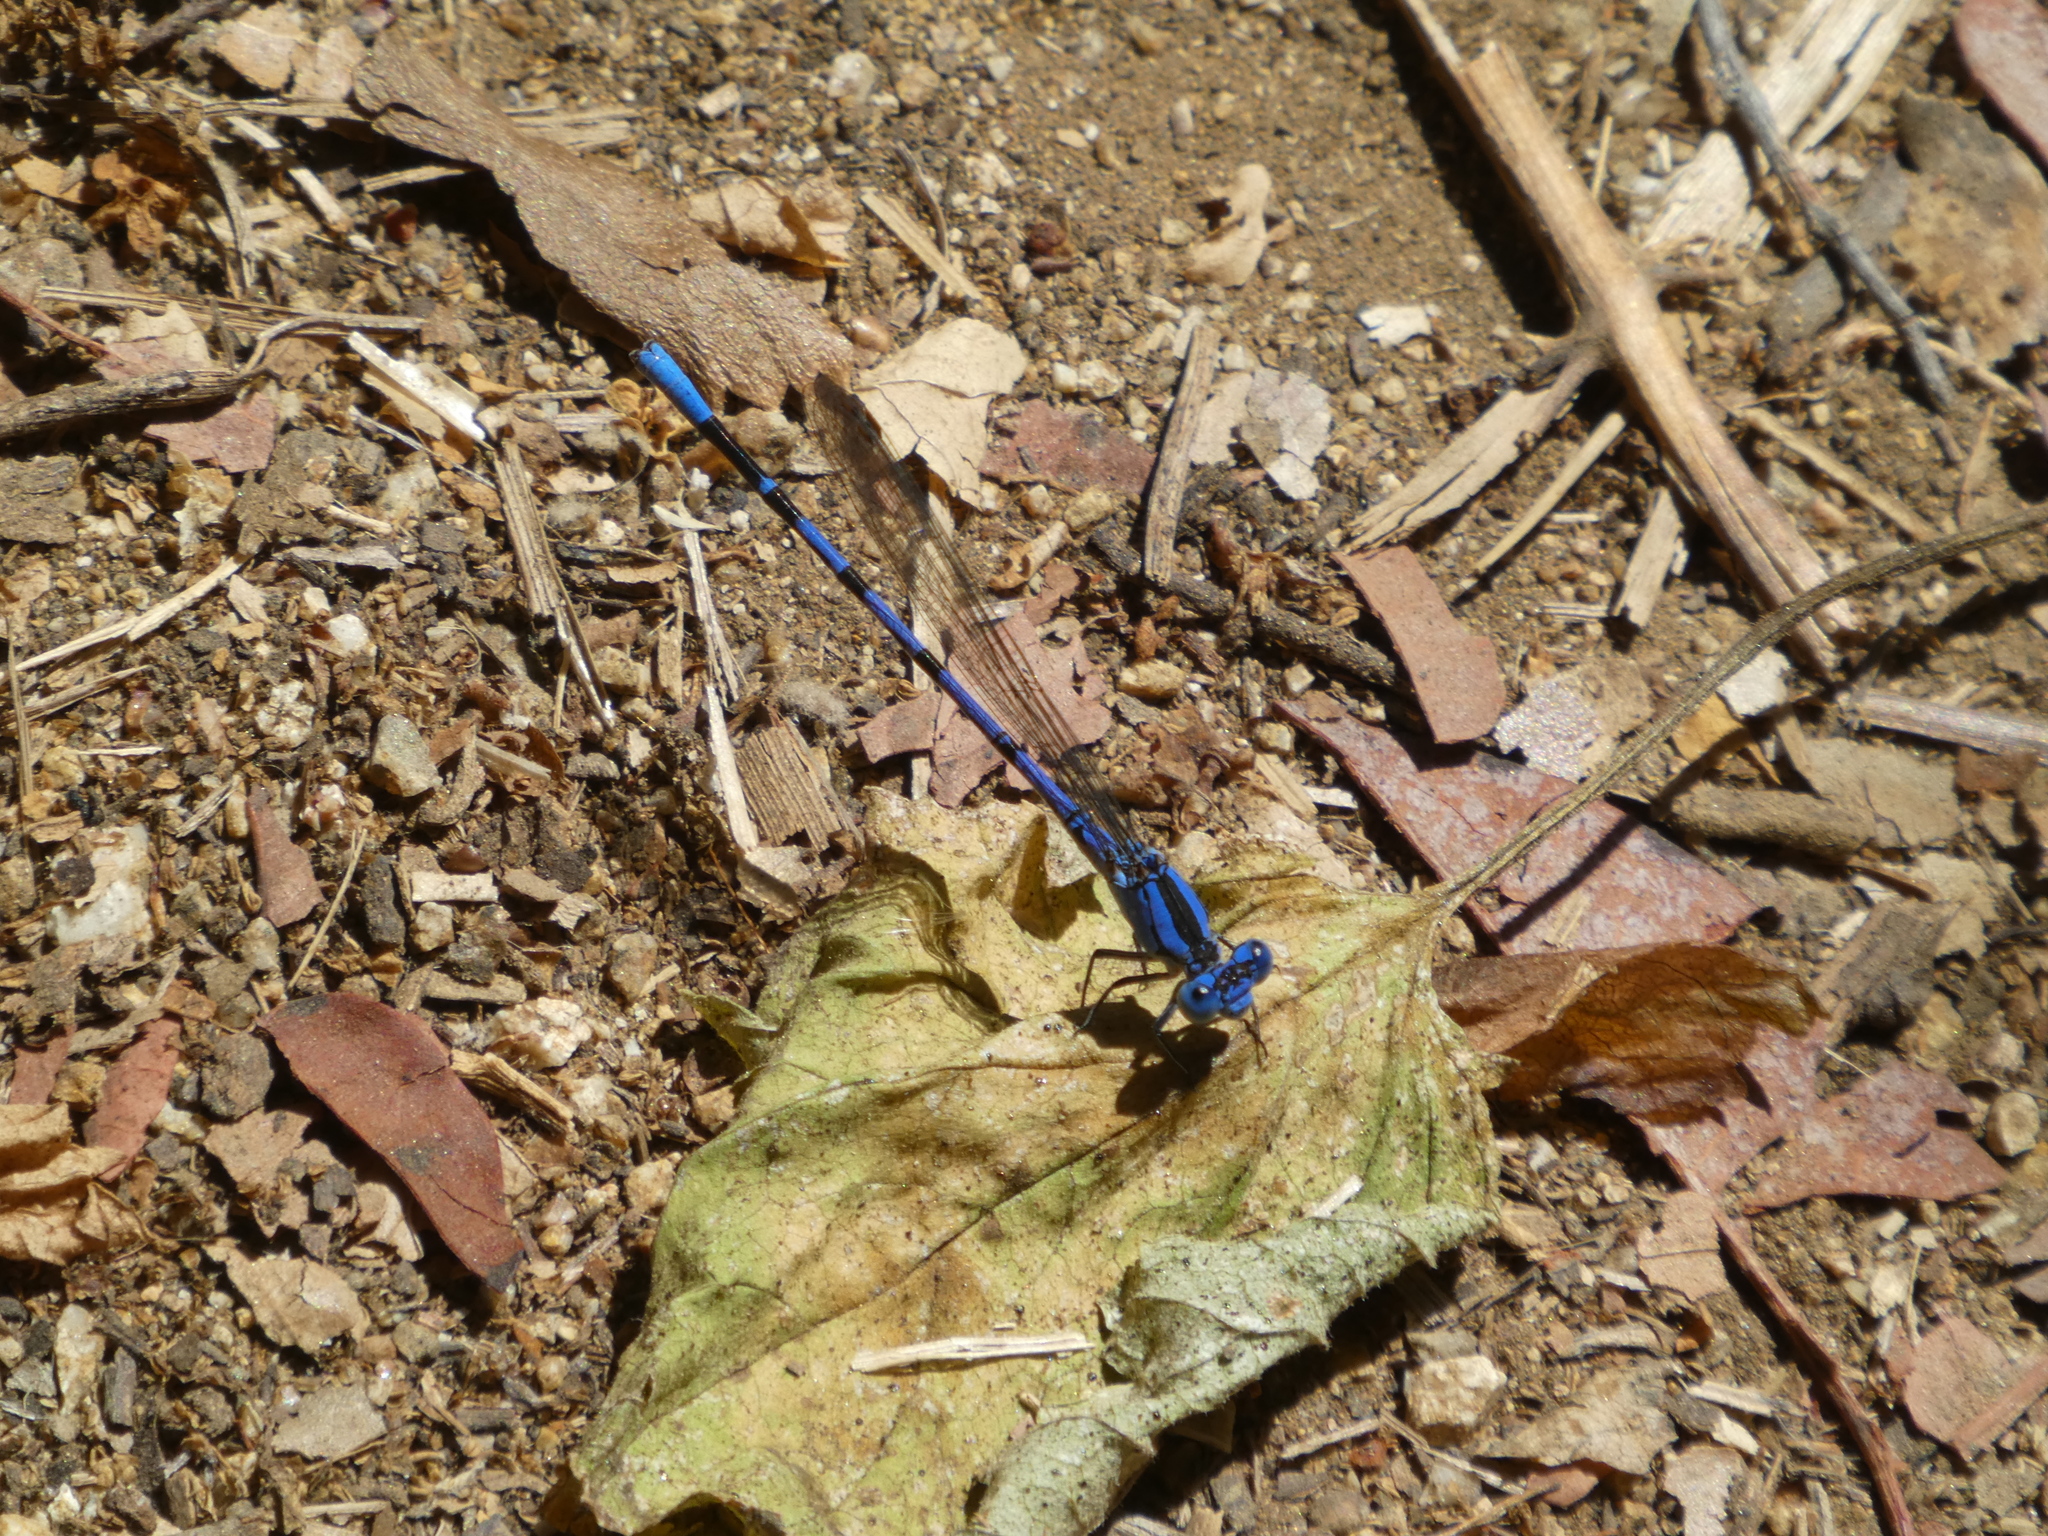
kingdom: Animalia
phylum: Arthropoda
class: Insecta
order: Odonata
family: Coenagrionidae
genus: Argia
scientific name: Argia vivida
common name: Vivid dancer
